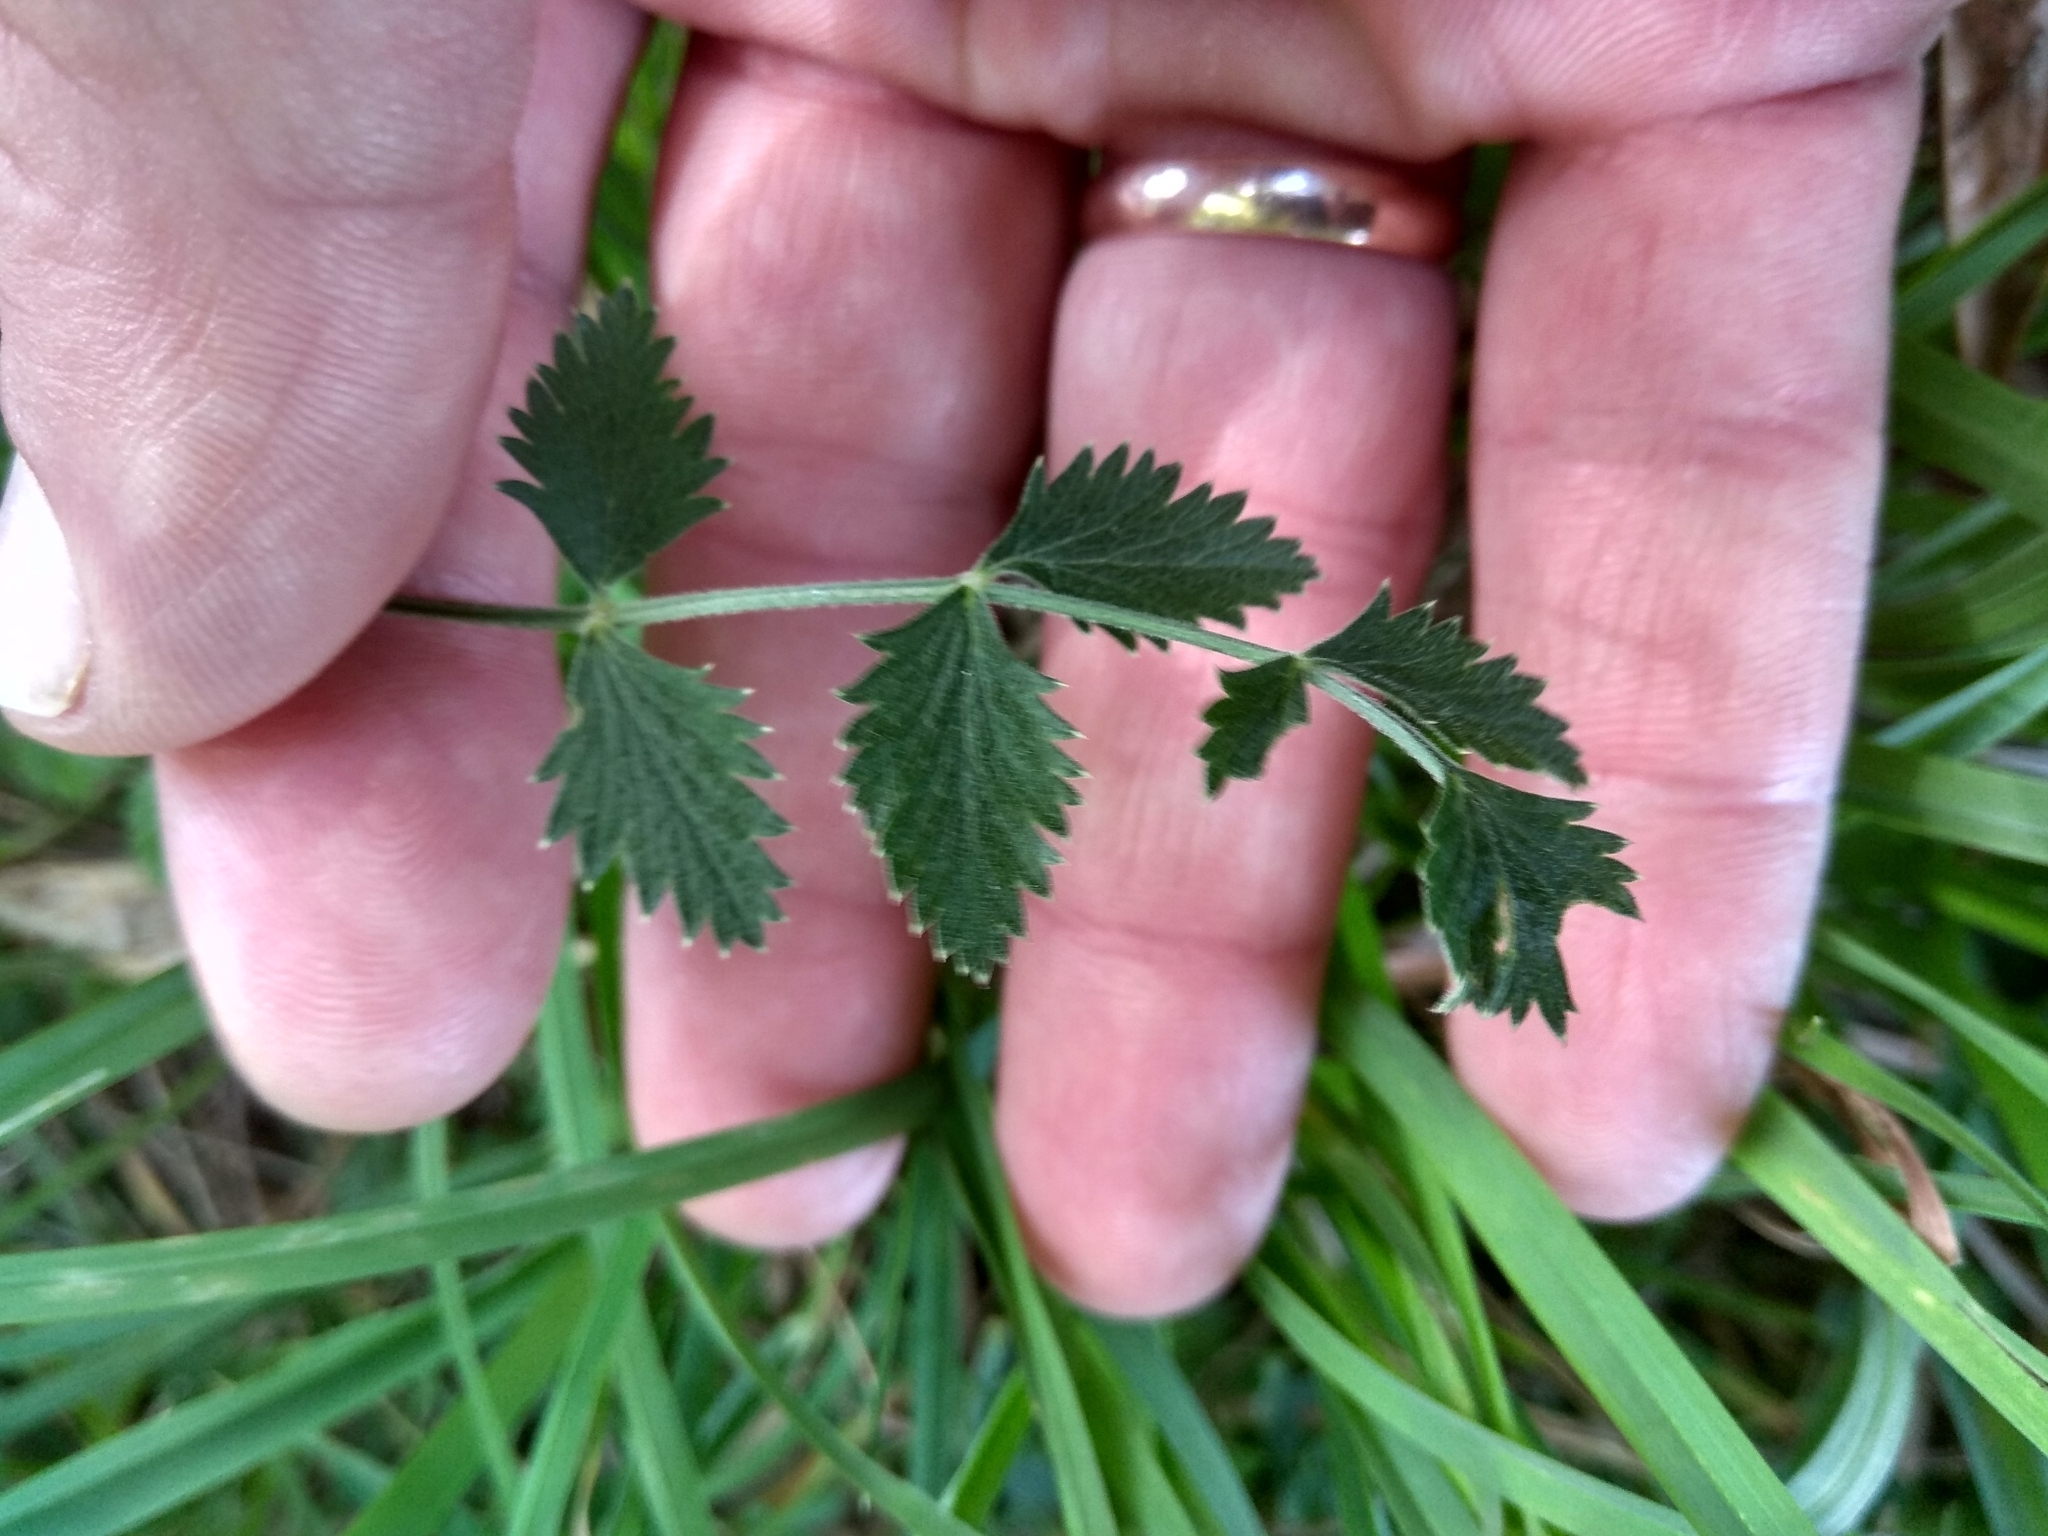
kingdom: Plantae
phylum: Tracheophyta
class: Magnoliopsida
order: Apiales
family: Apiaceae
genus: Pimpinella
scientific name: Pimpinella saxifraga
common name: Burnet-saxifrage
